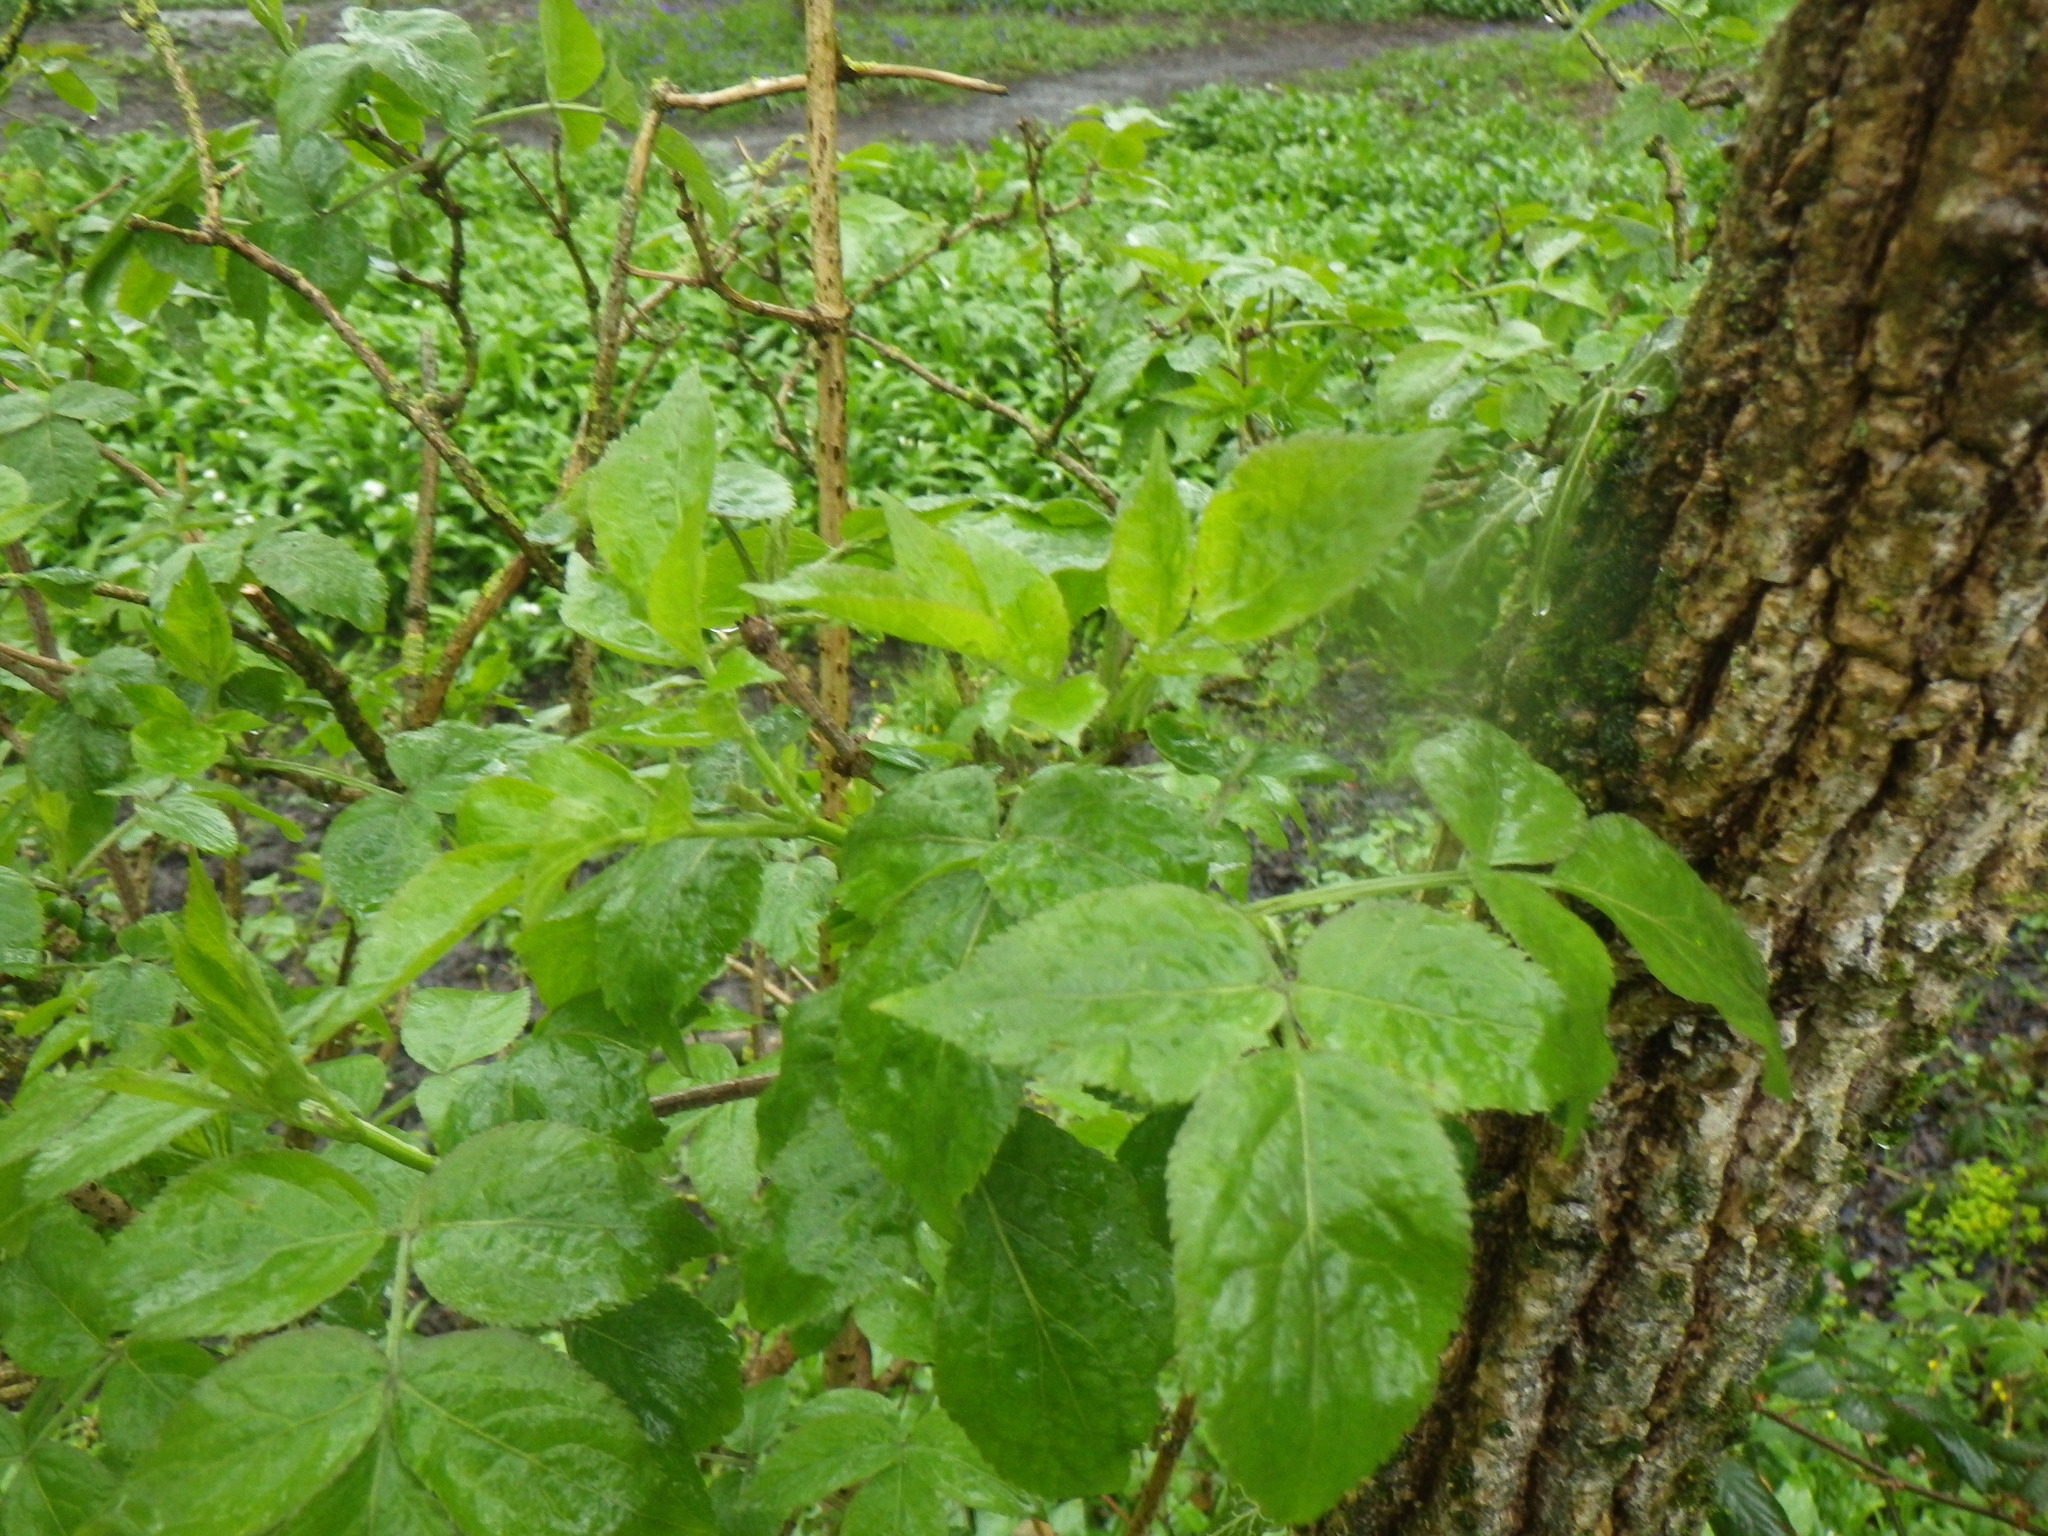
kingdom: Plantae
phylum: Tracheophyta
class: Magnoliopsida
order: Dipsacales
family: Viburnaceae
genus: Sambucus
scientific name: Sambucus nigra
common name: Elder
